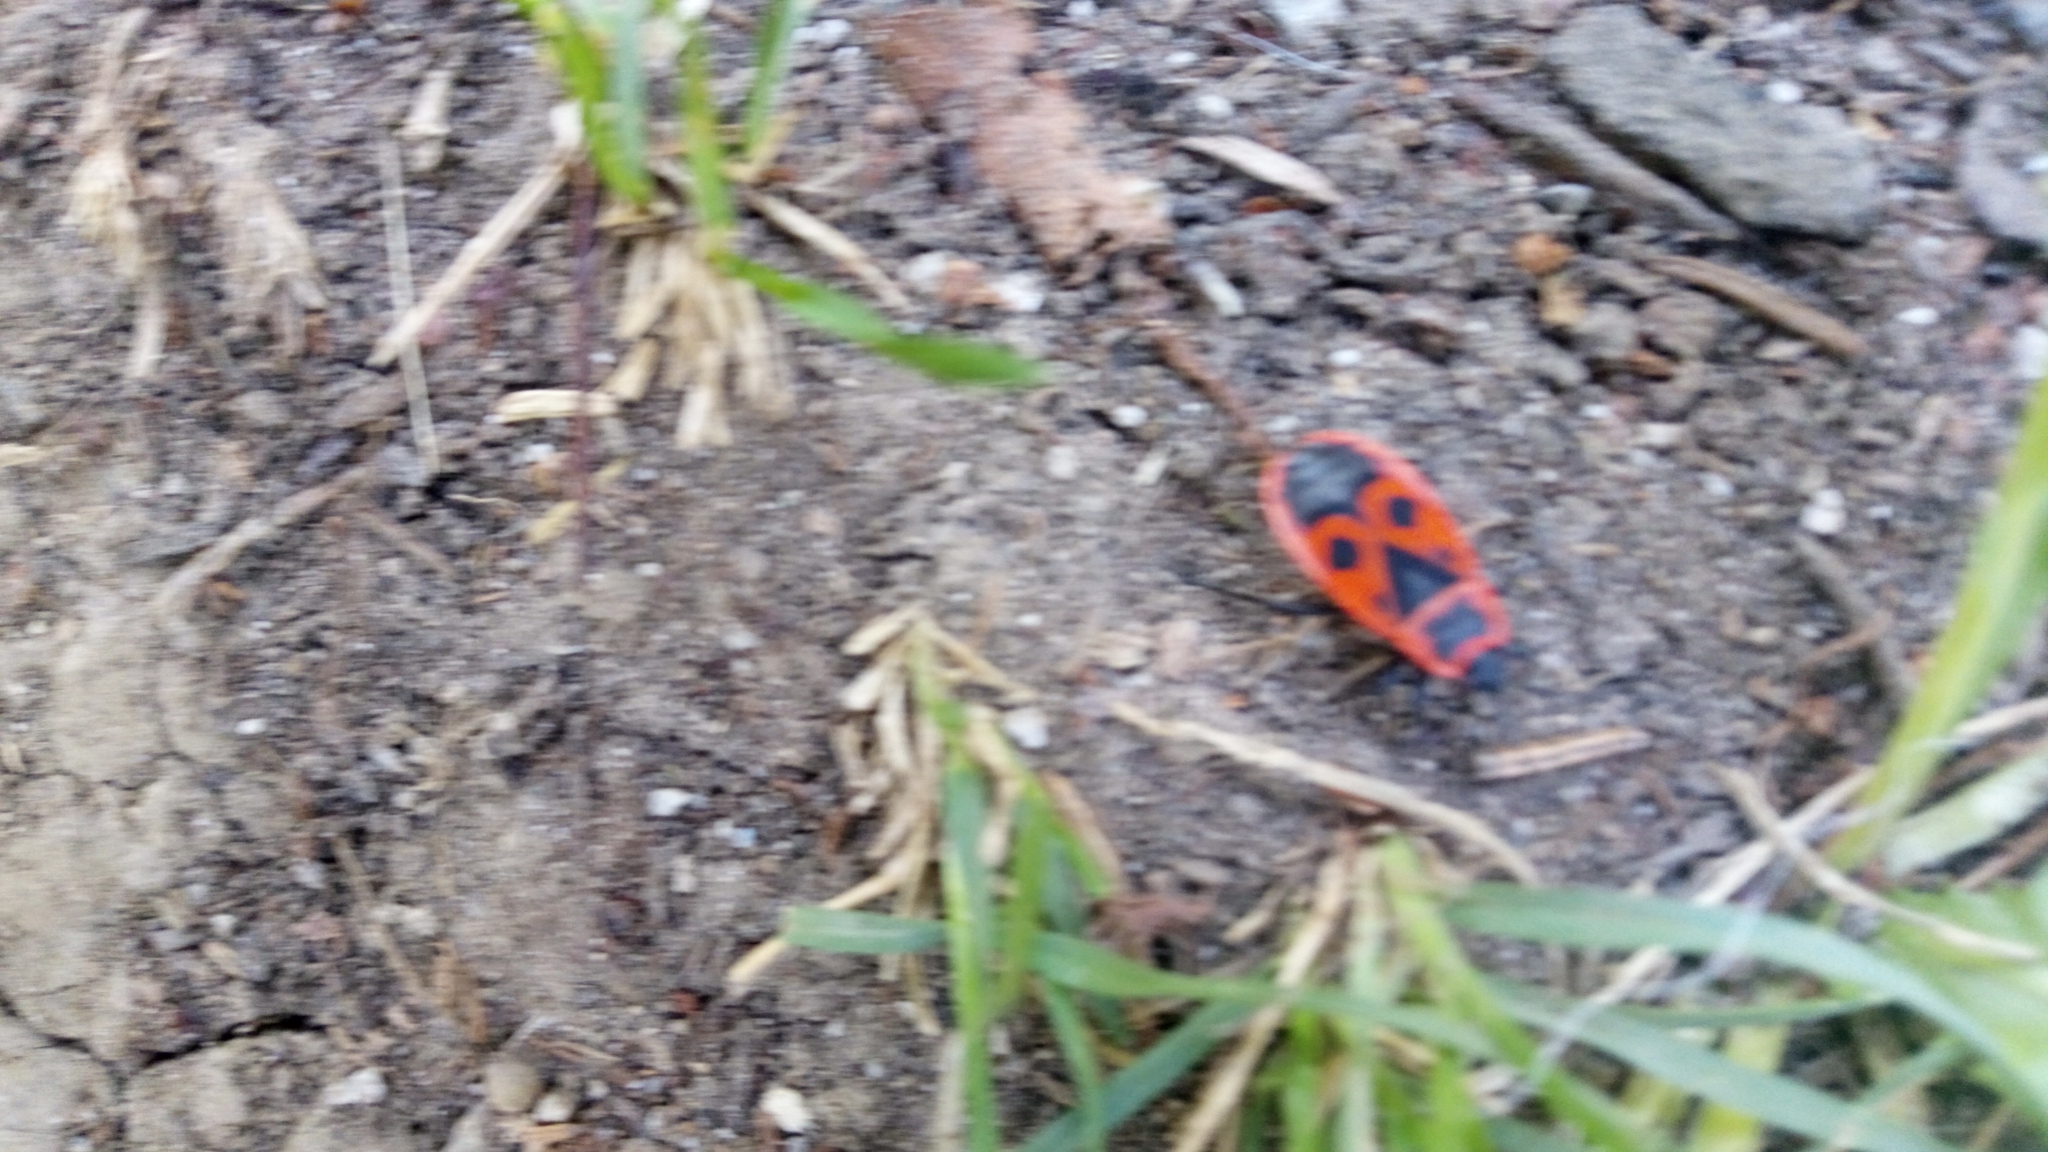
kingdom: Animalia
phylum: Arthropoda
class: Insecta
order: Hemiptera
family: Pyrrhocoridae
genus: Pyrrhocoris
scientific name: Pyrrhocoris apterus
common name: Firebug
